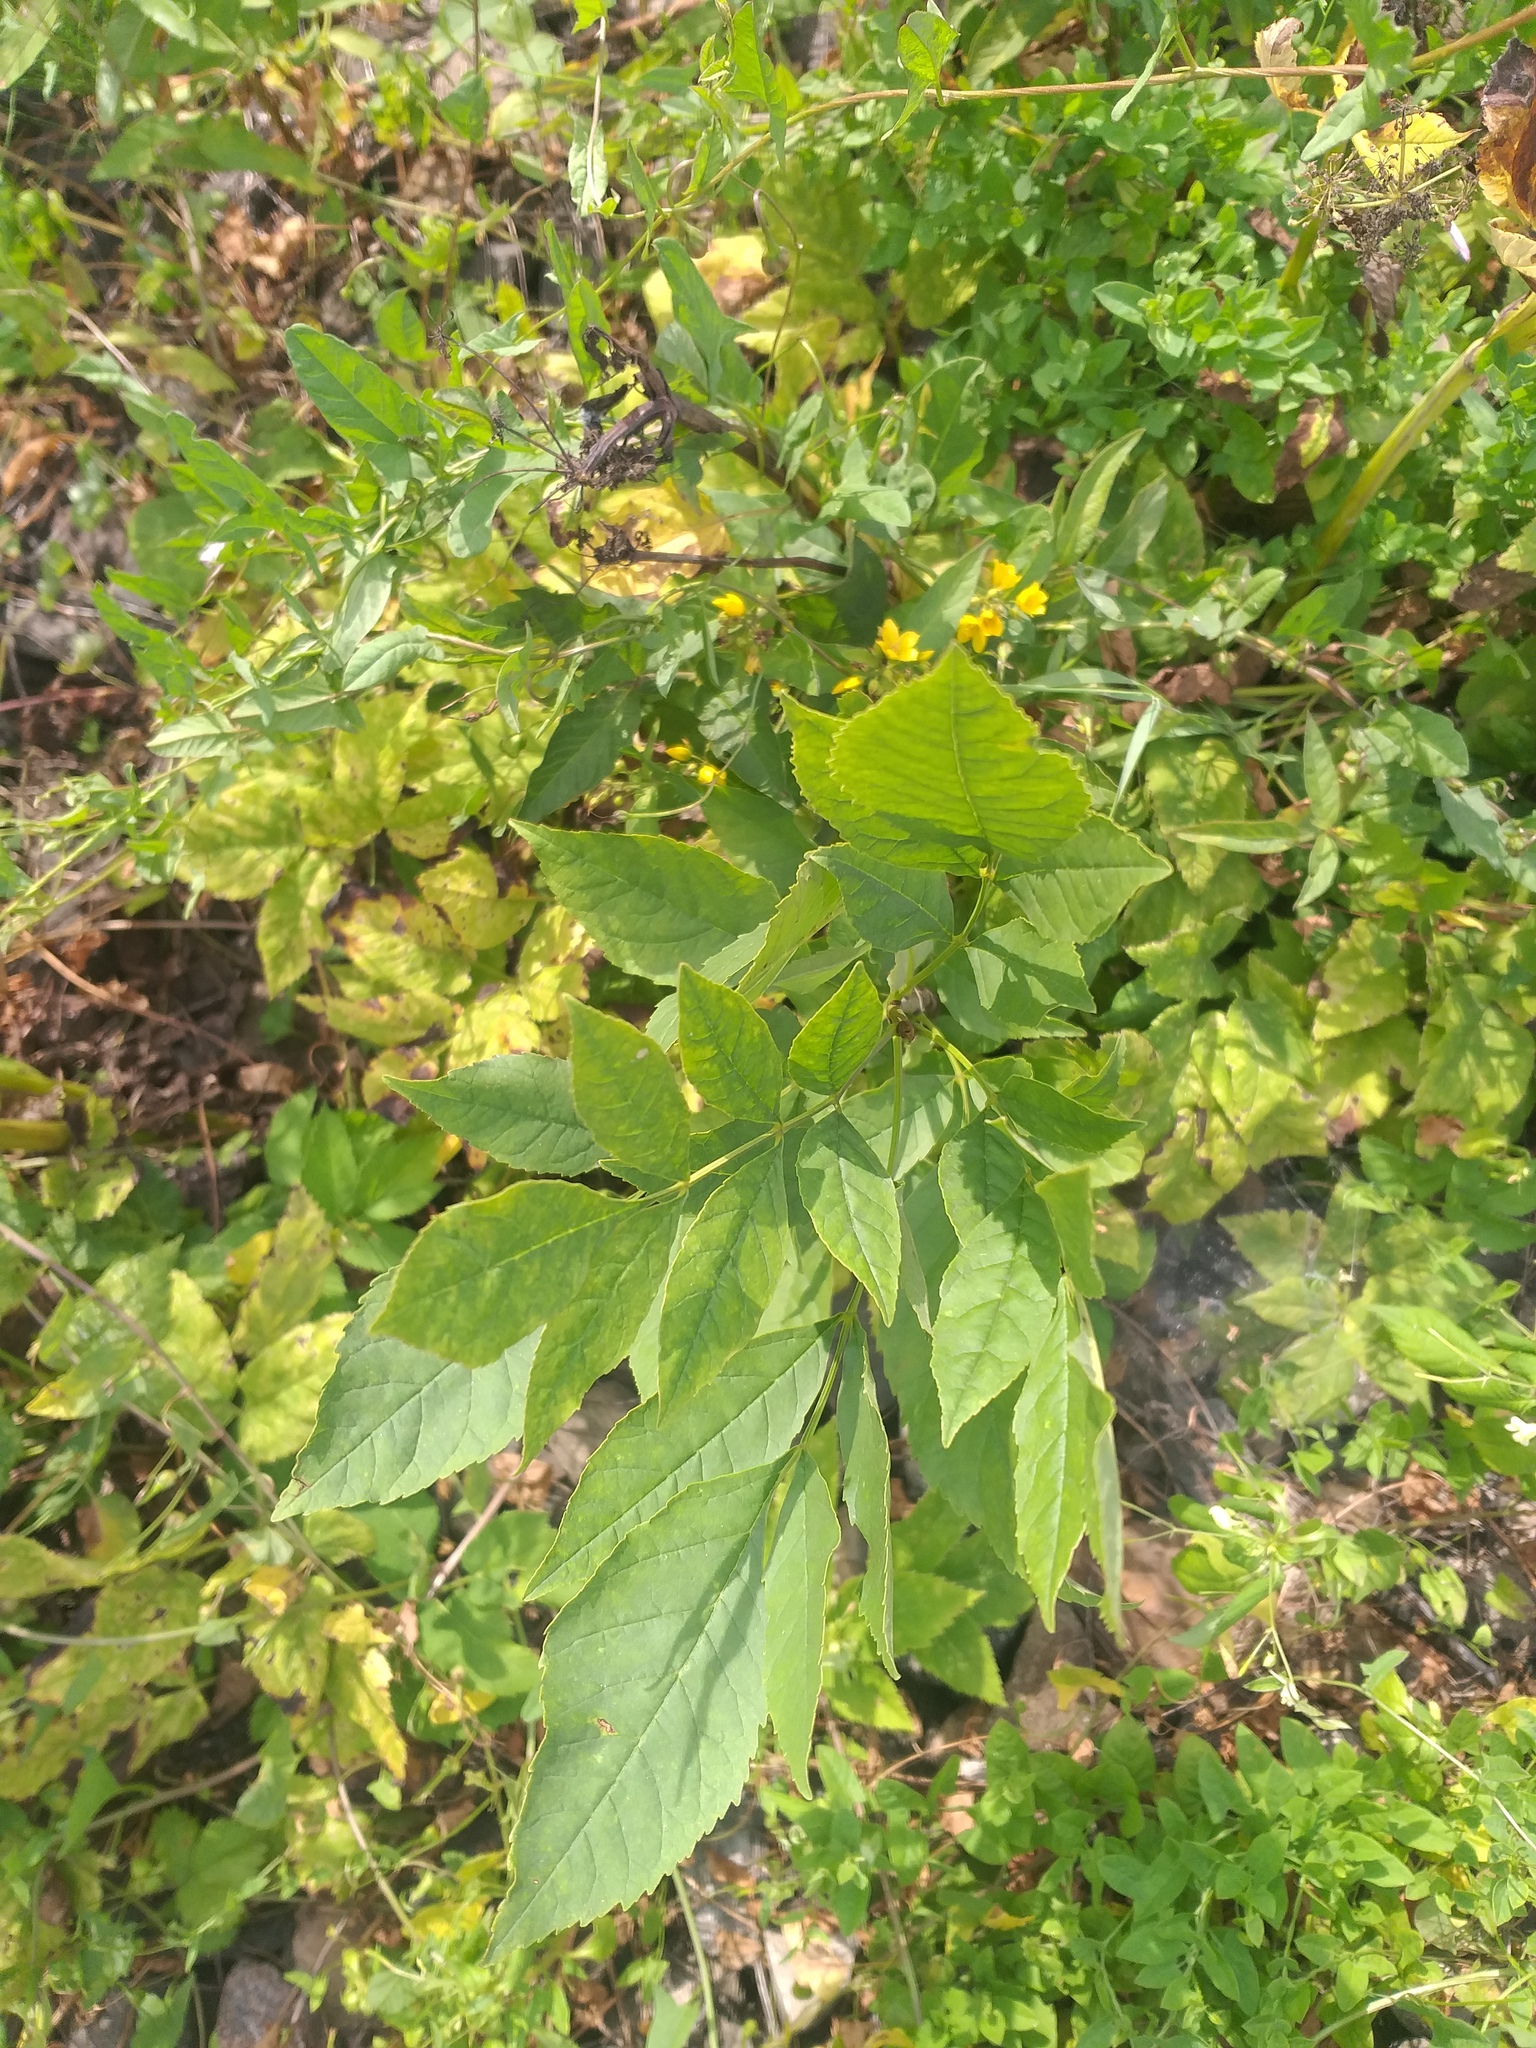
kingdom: Plantae
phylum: Tracheophyta
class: Magnoliopsida
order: Lamiales
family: Oleaceae
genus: Fraxinus
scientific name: Fraxinus pennsylvanica
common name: Green ash
